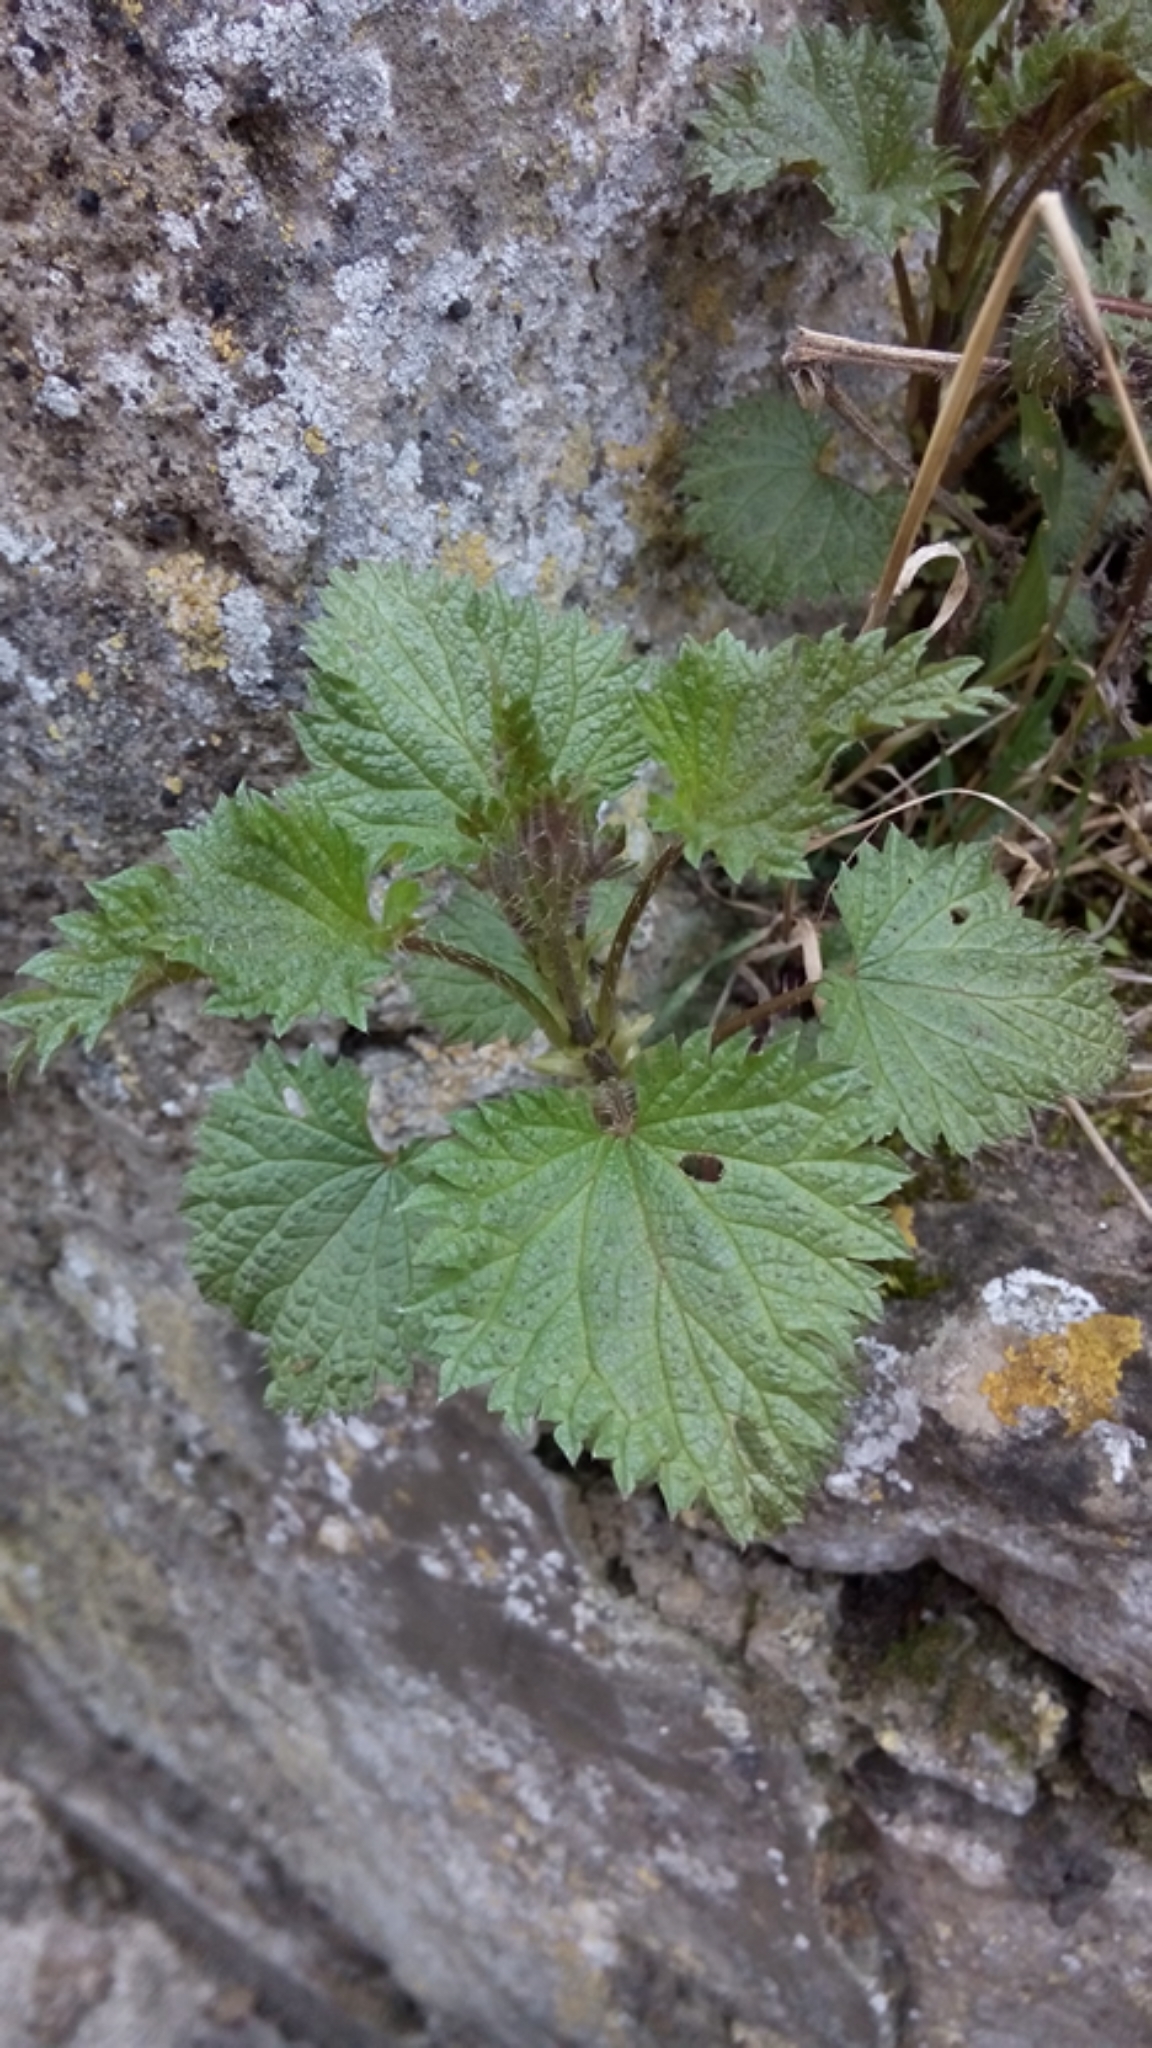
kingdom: Plantae
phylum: Tracheophyta
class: Magnoliopsida
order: Rosales
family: Urticaceae
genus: Urtica
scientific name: Urtica dioica
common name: Common nettle
